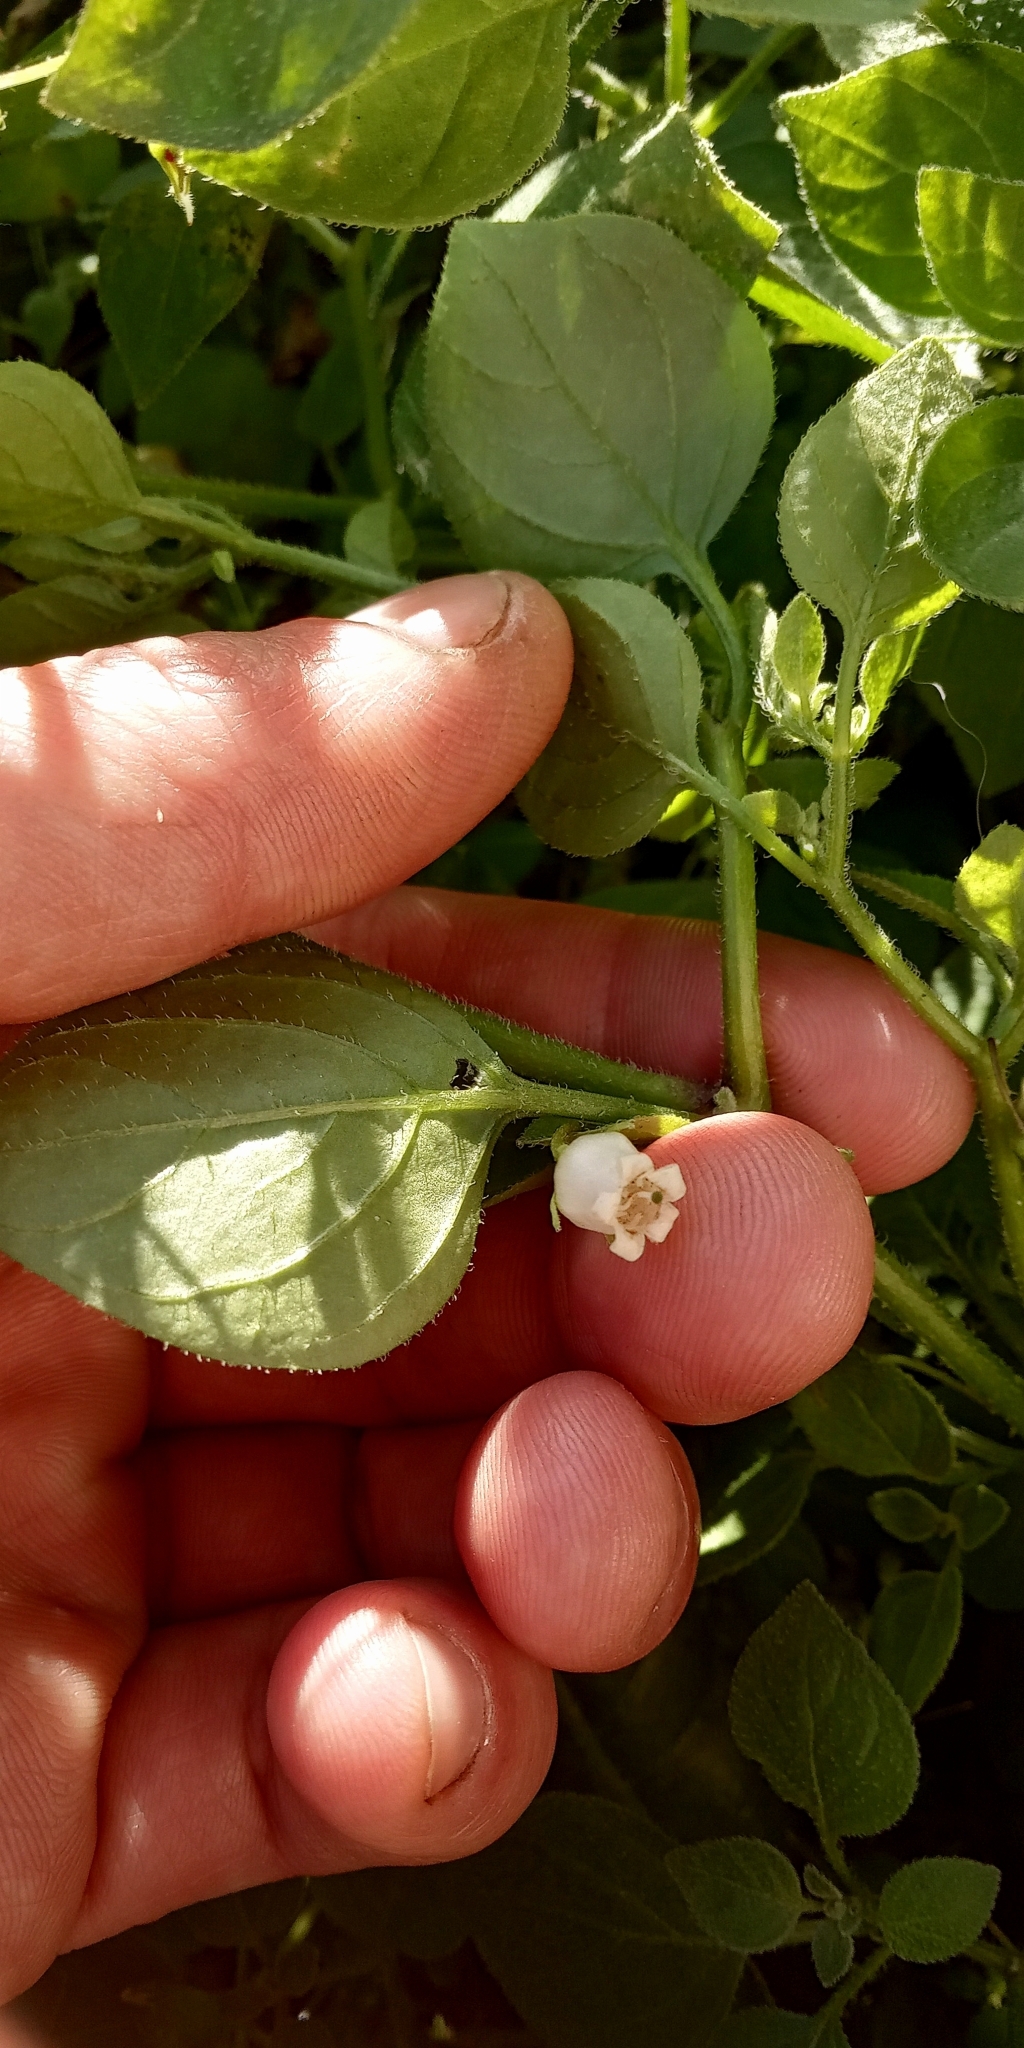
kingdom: Plantae
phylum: Tracheophyta
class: Magnoliopsida
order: Solanales
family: Solanaceae
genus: Salpichroa
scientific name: Salpichroa origanifolia
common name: Lily-of-the-valley-vine
